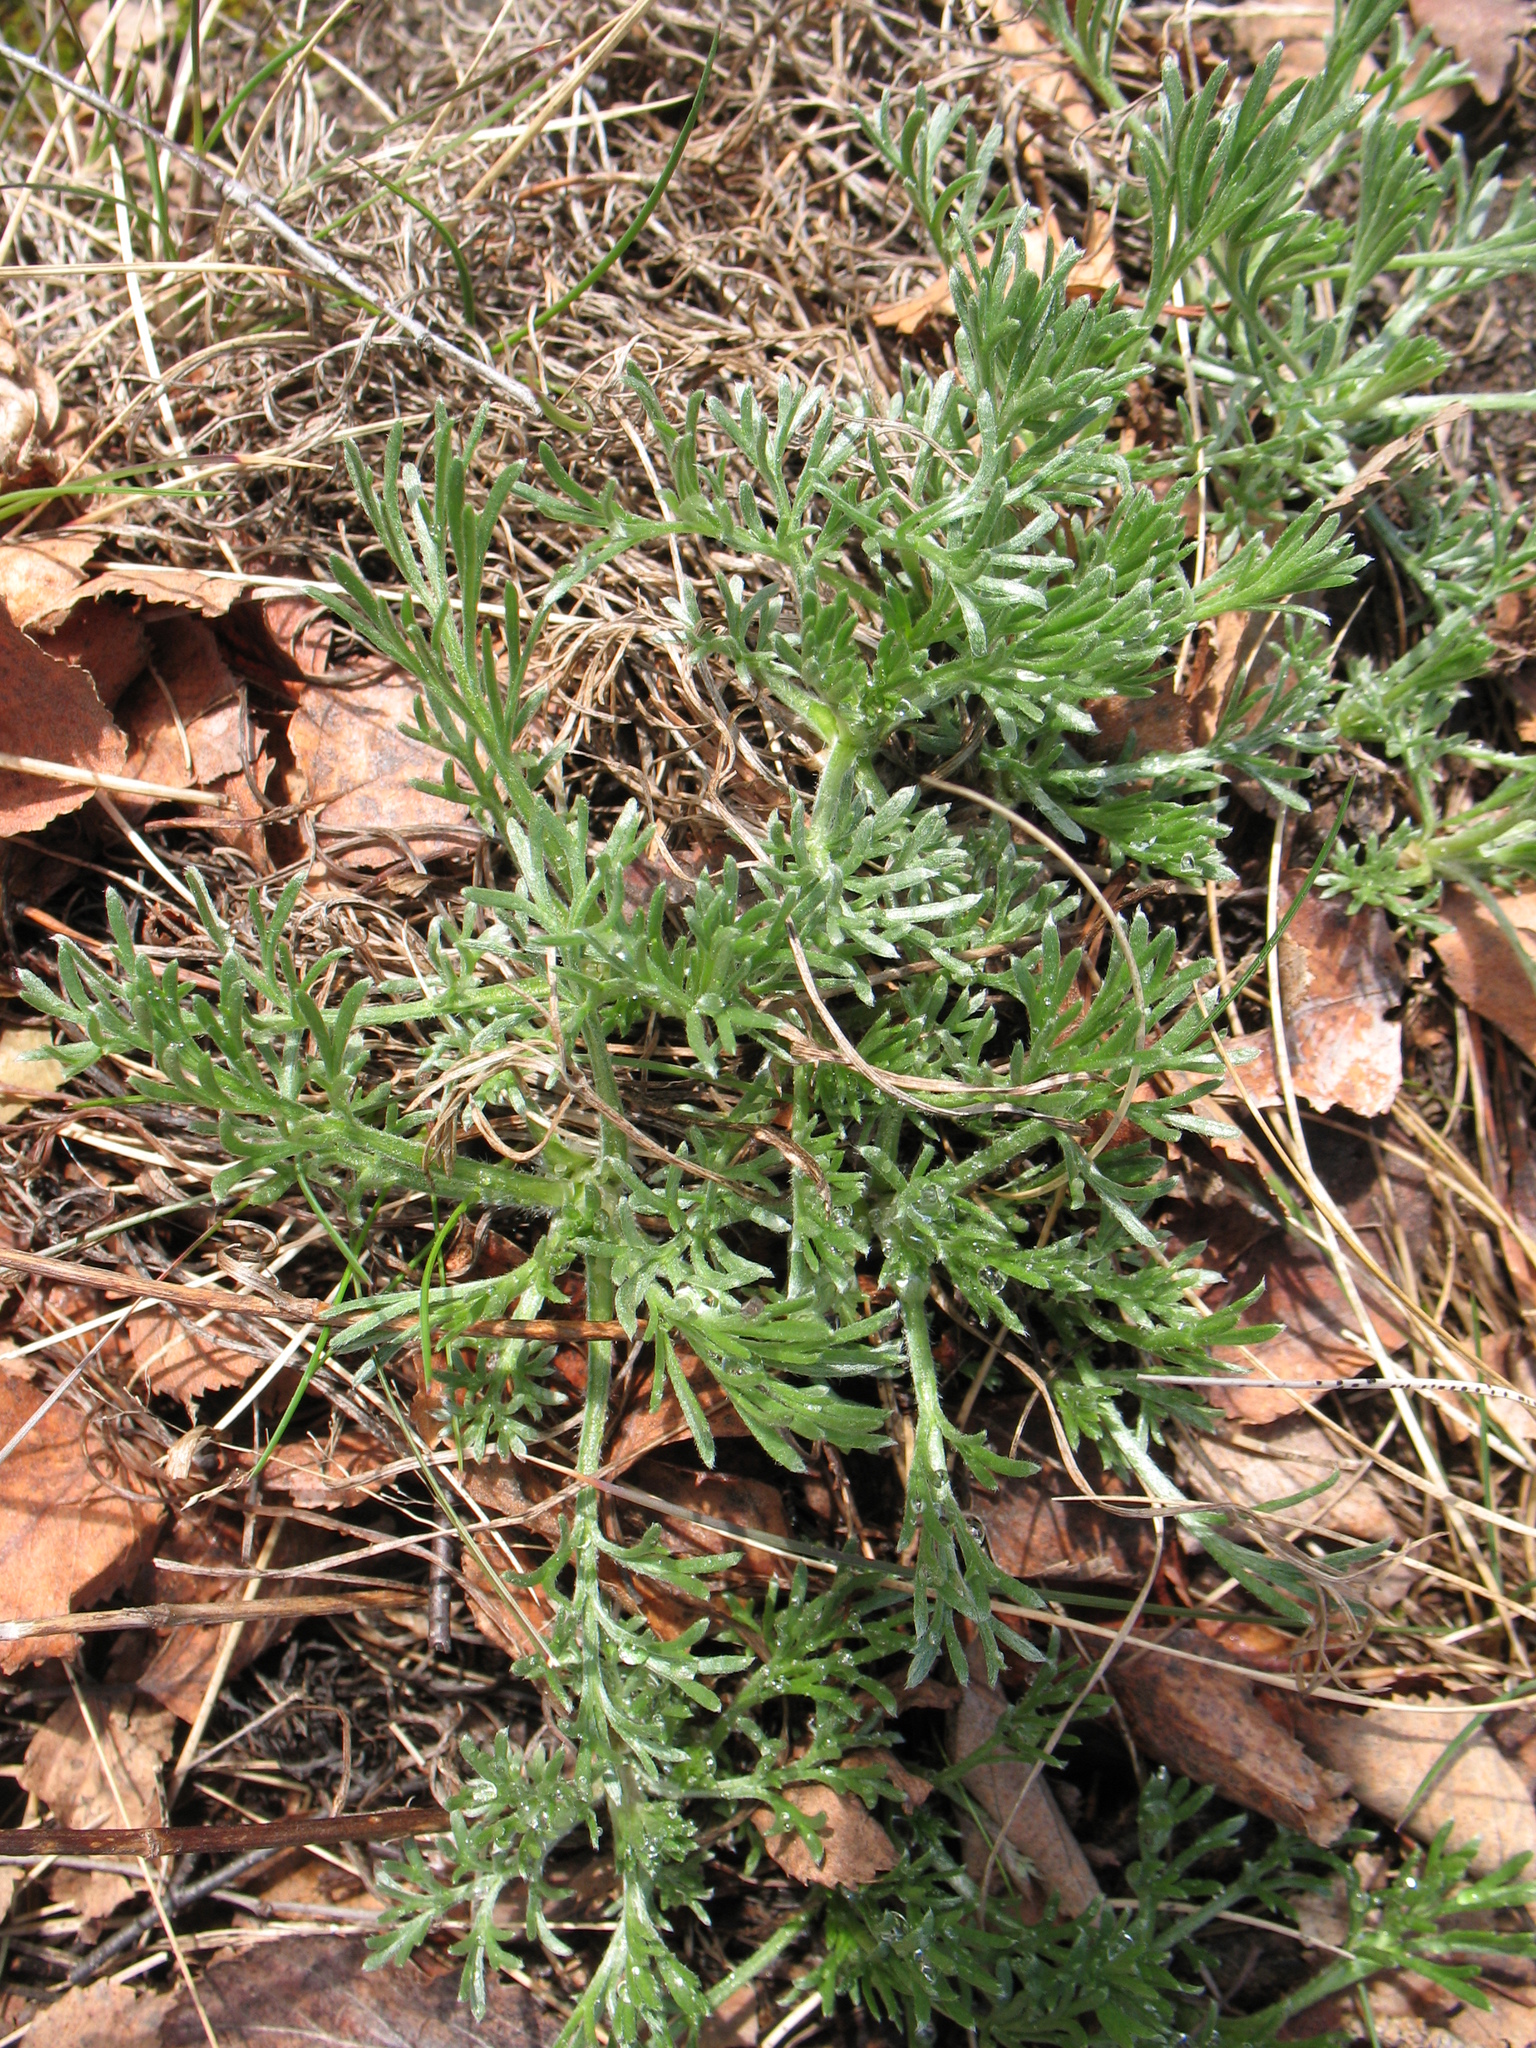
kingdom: Plantae
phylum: Tracheophyta
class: Magnoliopsida
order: Asterales
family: Asteraceae
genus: Artemisia
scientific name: Artemisia campestris
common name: Field wormwood
